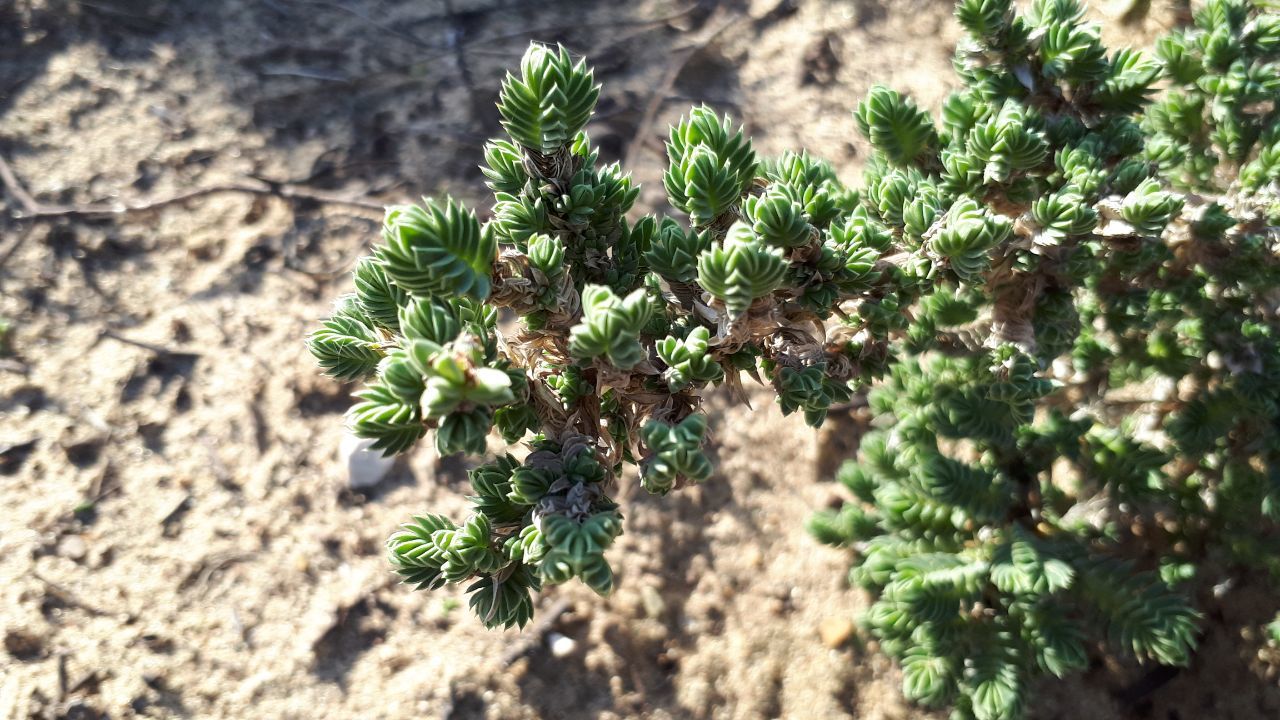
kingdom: Plantae
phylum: Tracheophyta
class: Magnoliopsida
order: Gentianales
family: Rubiaceae
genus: Crucianella
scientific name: Crucianella maritima
